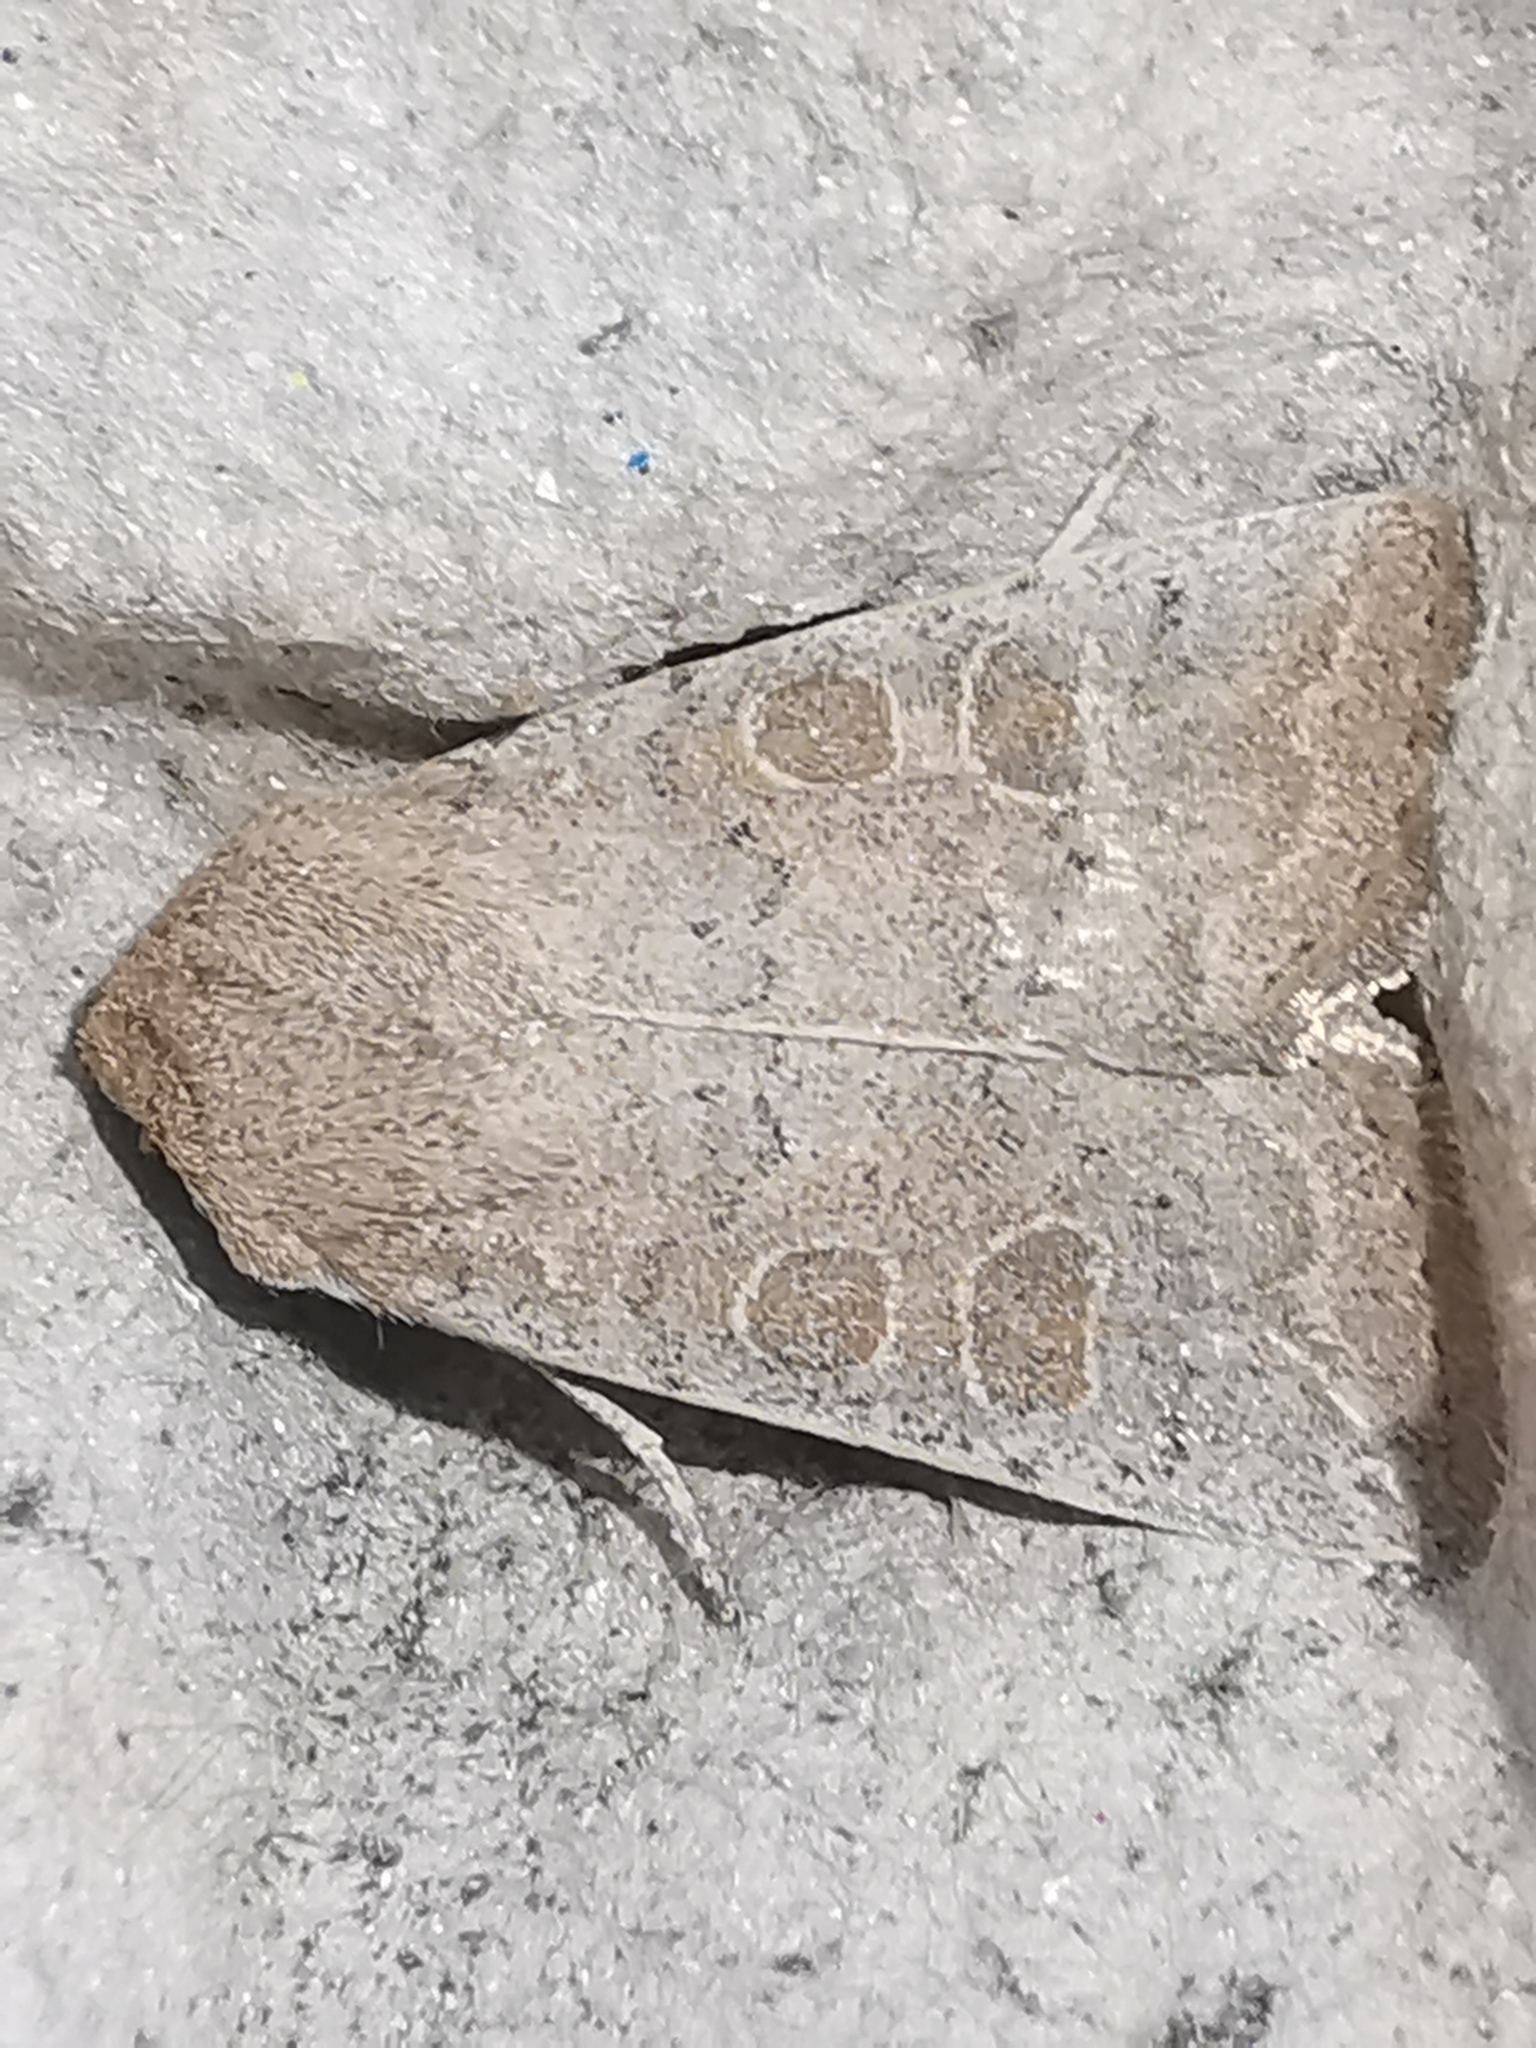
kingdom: Animalia
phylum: Arthropoda
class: Insecta
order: Lepidoptera
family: Noctuidae
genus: Hoplodrina
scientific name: Hoplodrina ambigua
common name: Vine's rustic
